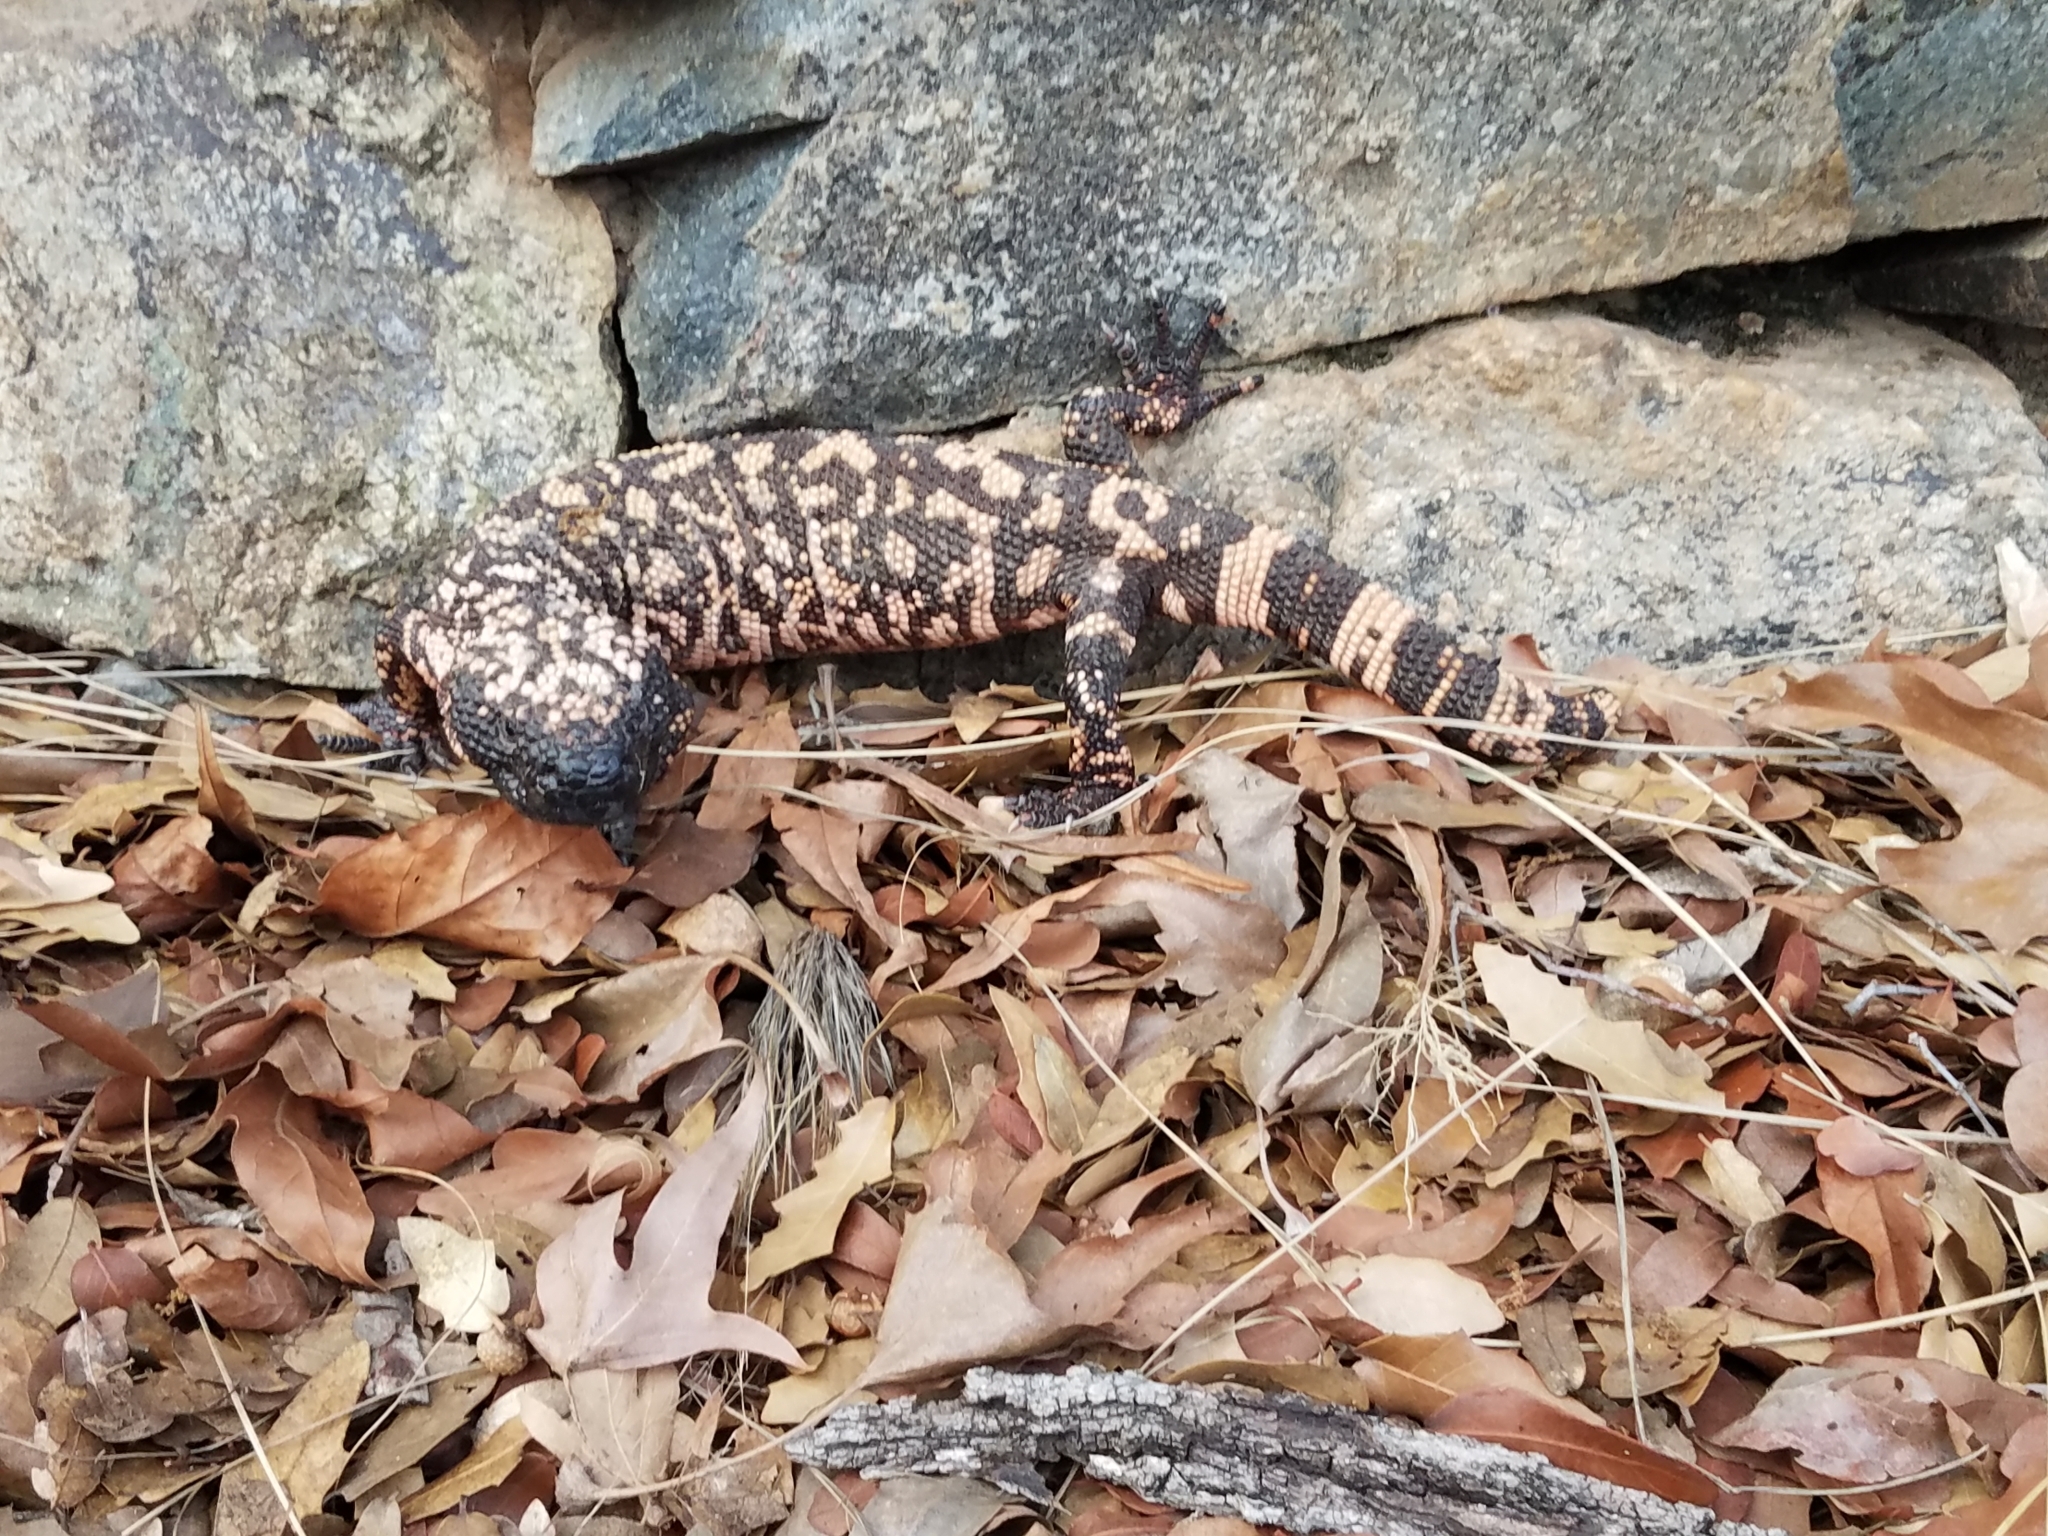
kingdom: Animalia
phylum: Chordata
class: Squamata
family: Helodermatidae
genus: Heloderma
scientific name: Heloderma suspectum
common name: Gila monster
